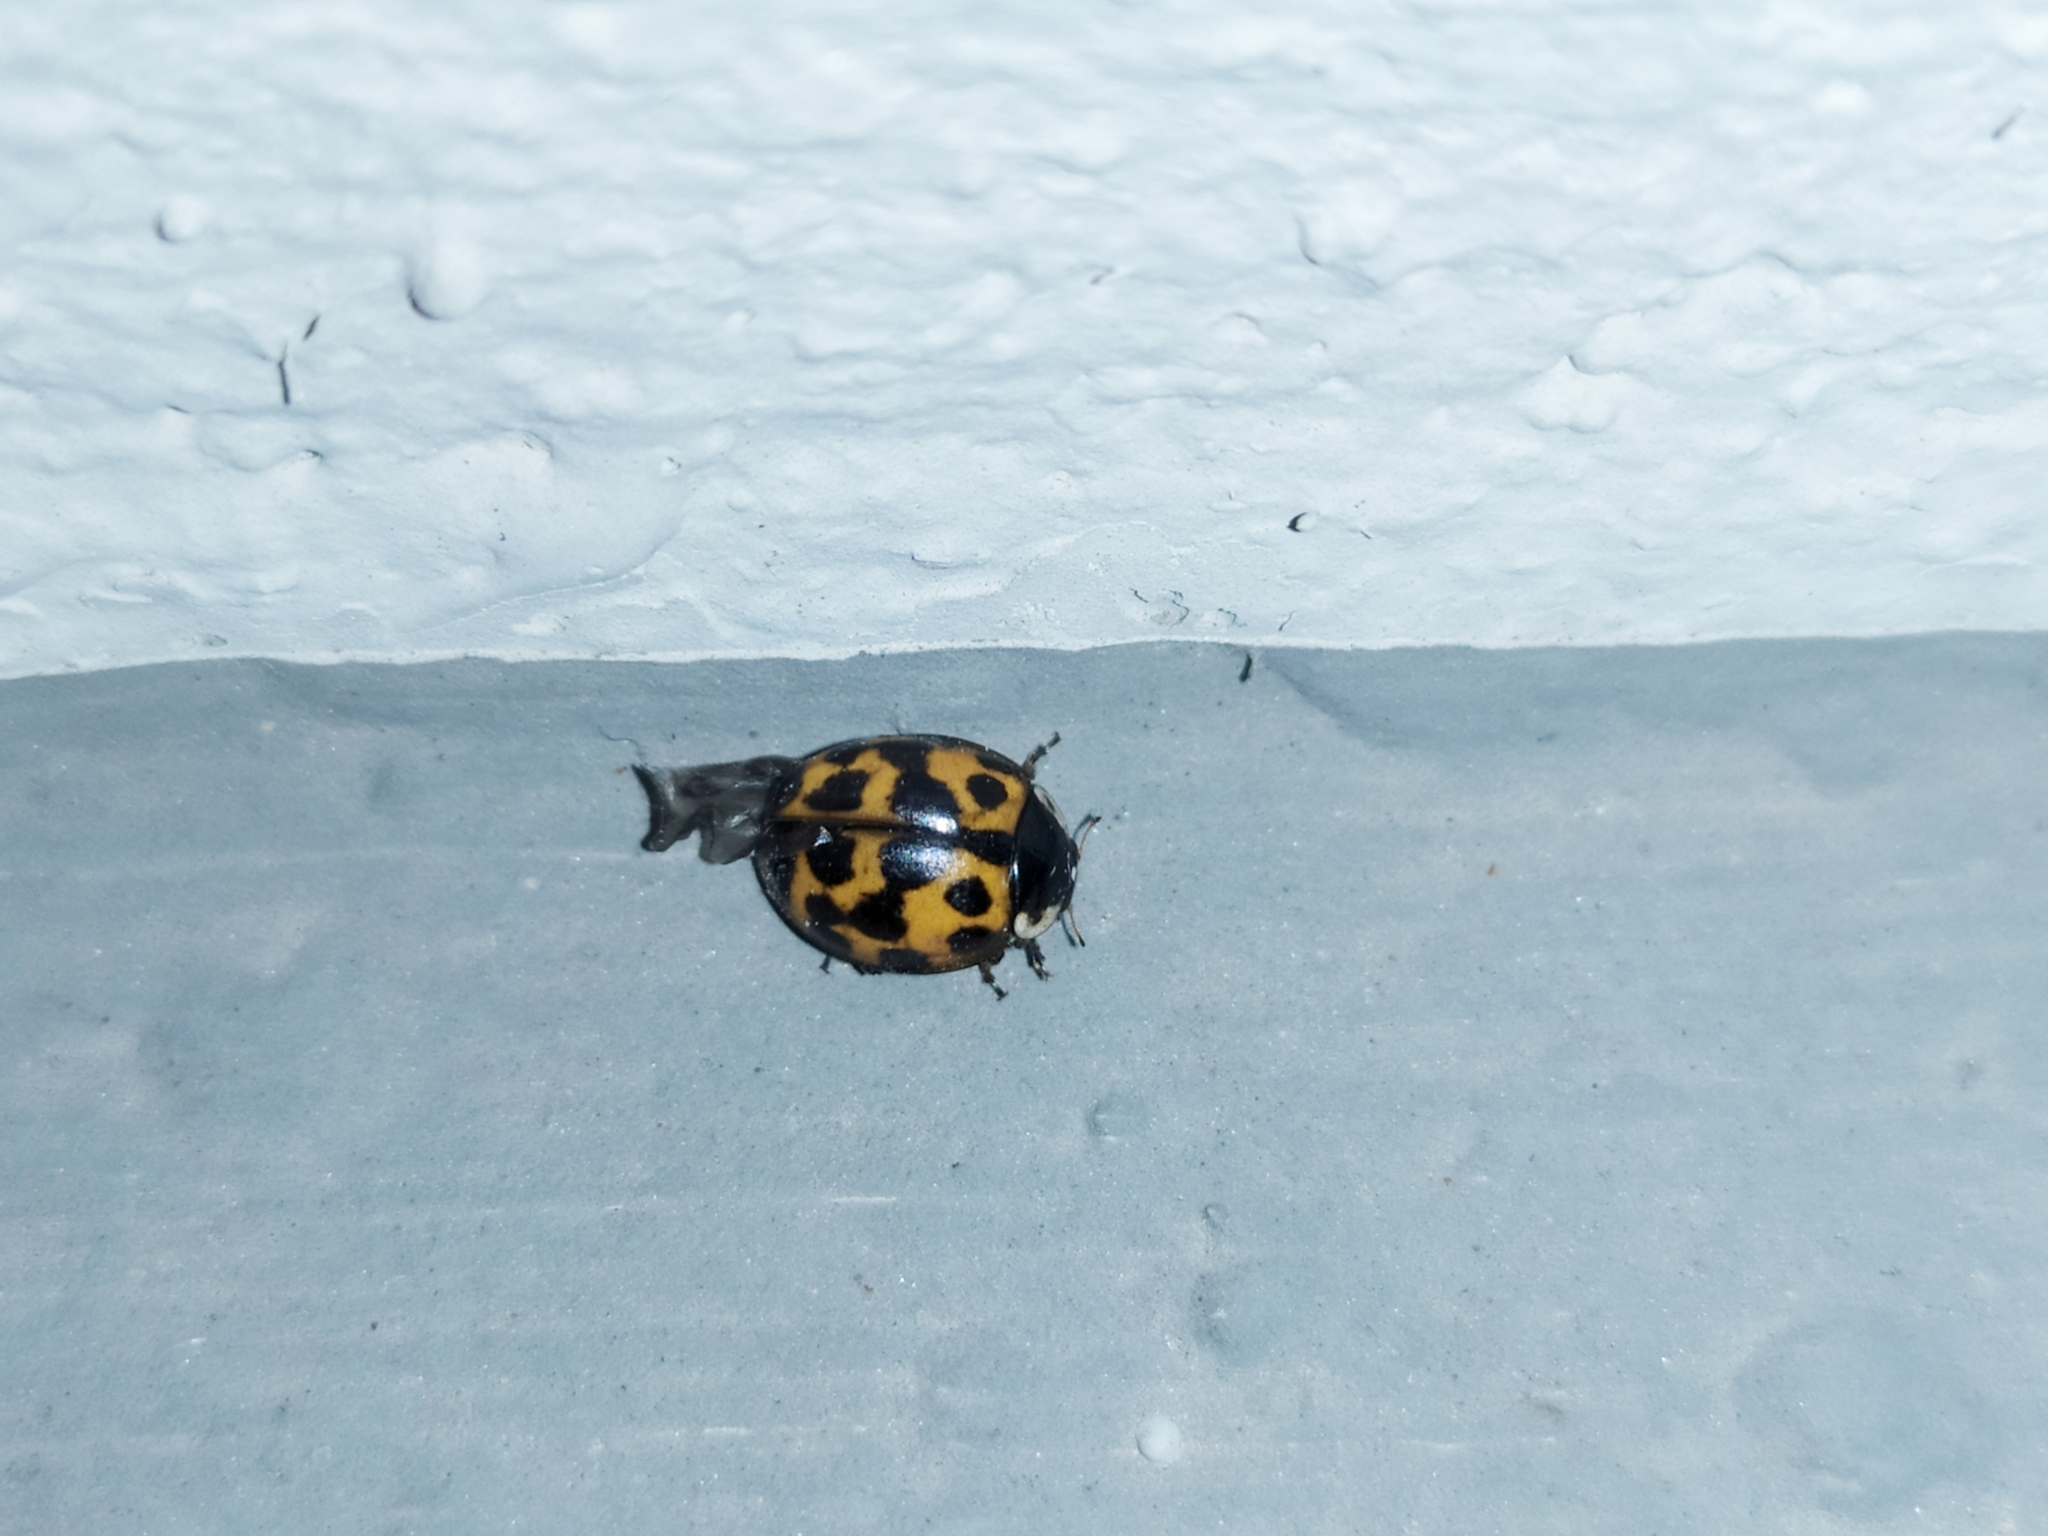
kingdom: Animalia
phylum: Arthropoda
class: Insecta
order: Coleoptera
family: Coccinellidae
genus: Harmonia
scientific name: Harmonia axyridis
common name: Harlequin ladybird
